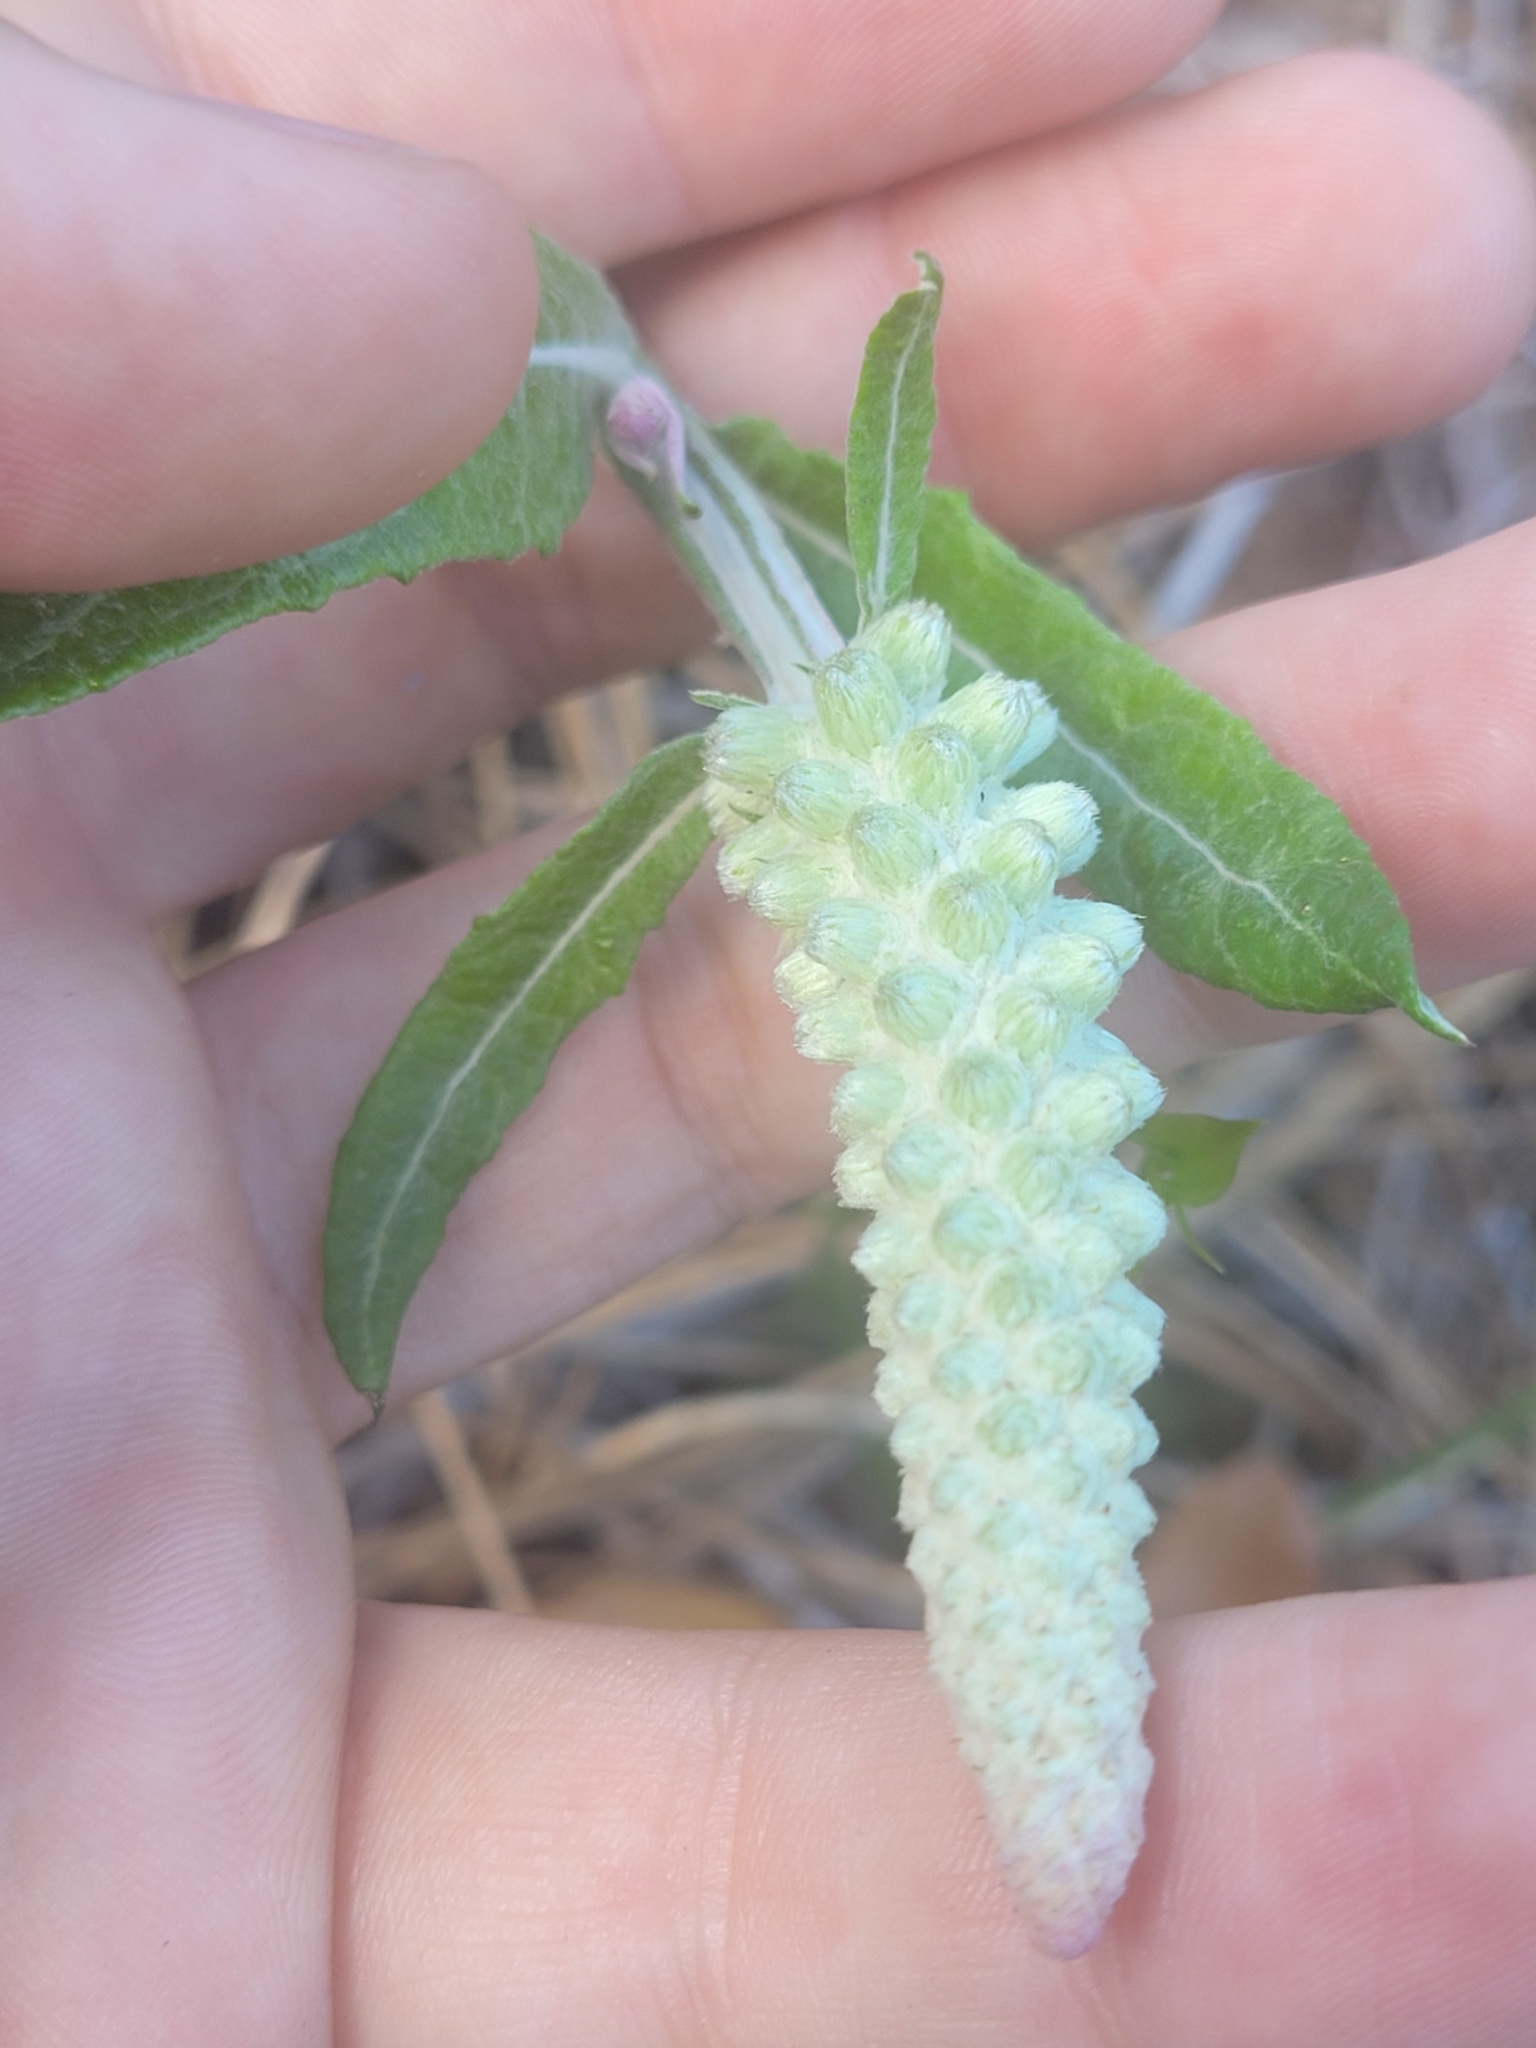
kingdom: Plantae
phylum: Tracheophyta
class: Magnoliopsida
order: Asterales
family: Asteraceae
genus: Pterocaulon
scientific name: Pterocaulon pycnostachyum
